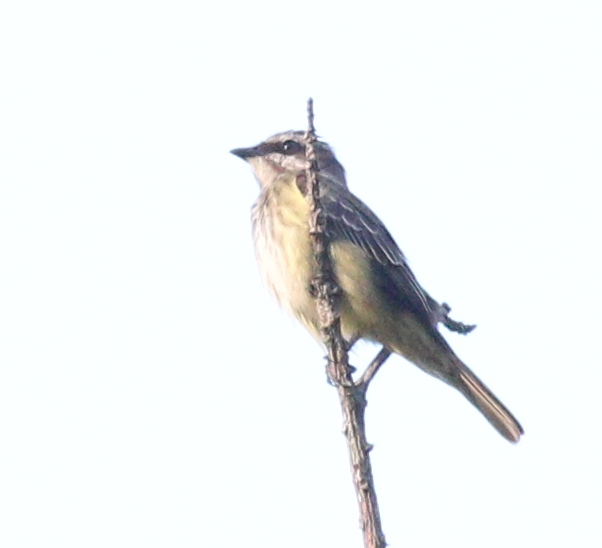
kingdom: Animalia
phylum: Chordata
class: Aves
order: Passeriformes
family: Tyrannidae
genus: Legatus
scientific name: Legatus leucophaius
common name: Piratic flycatcher
